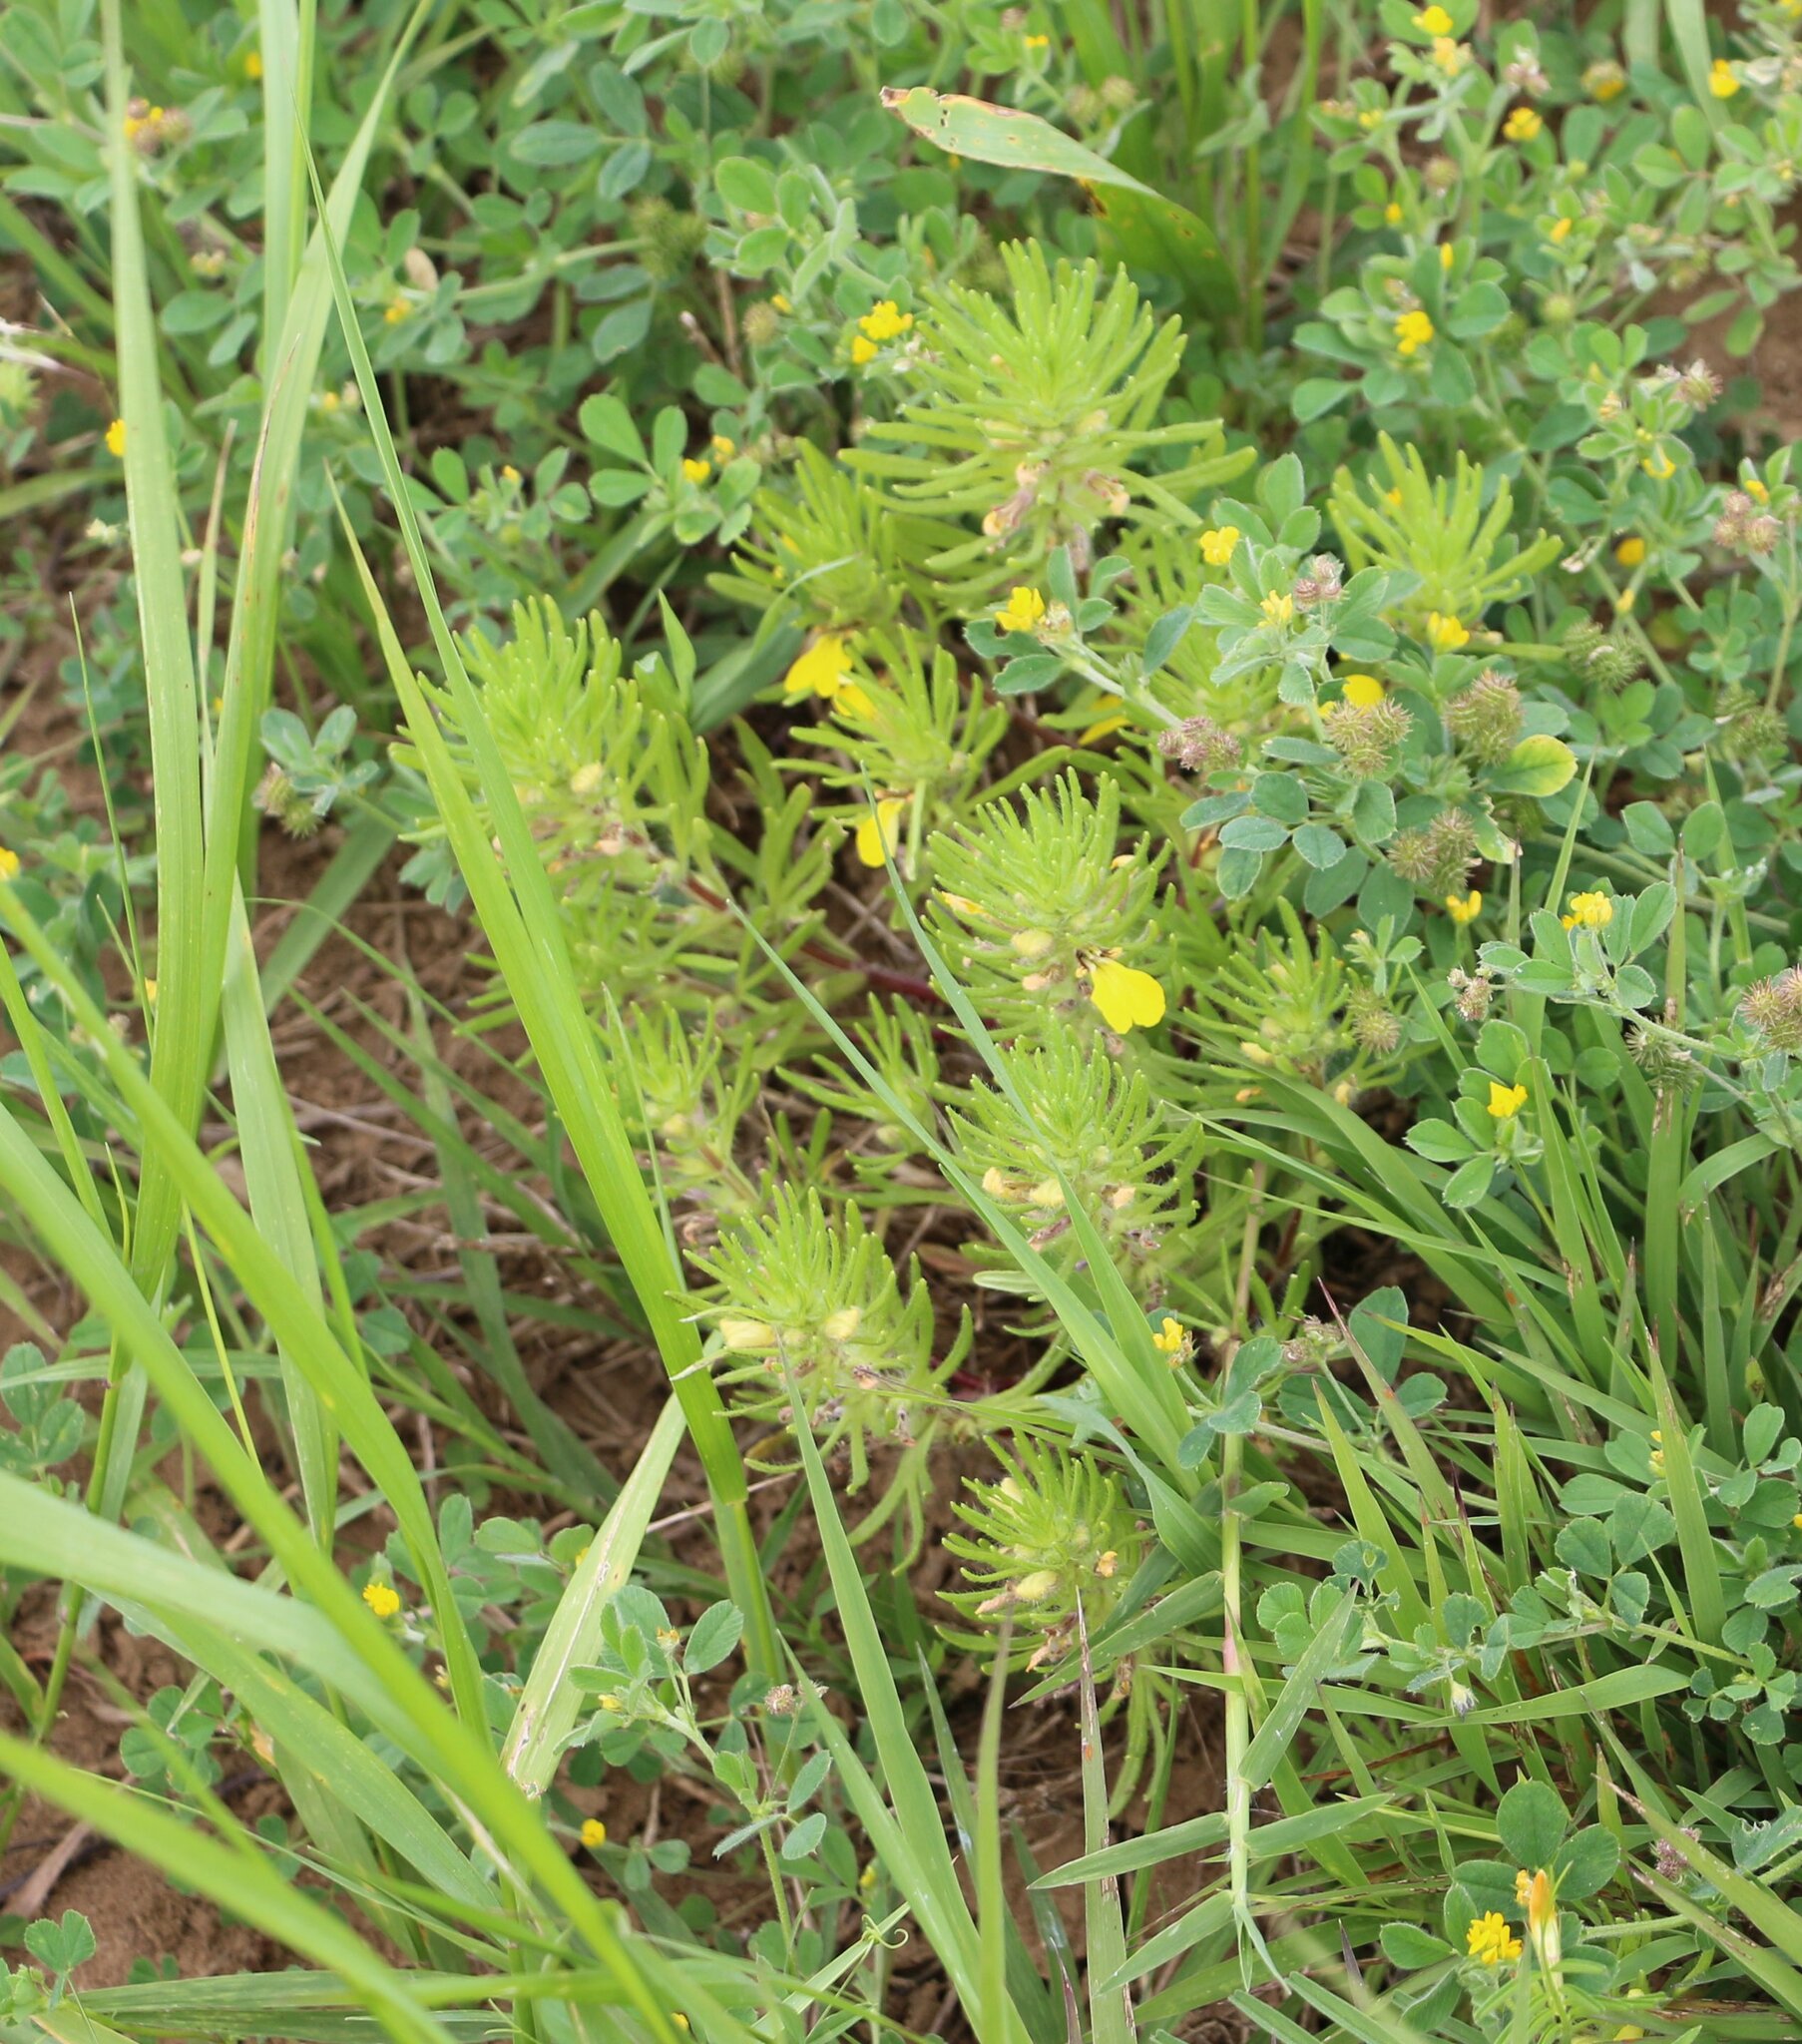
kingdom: Plantae
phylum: Tracheophyta
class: Magnoliopsida
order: Lamiales
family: Lamiaceae
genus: Ajuga
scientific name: Ajuga chamaepitys
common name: Ground-pine
